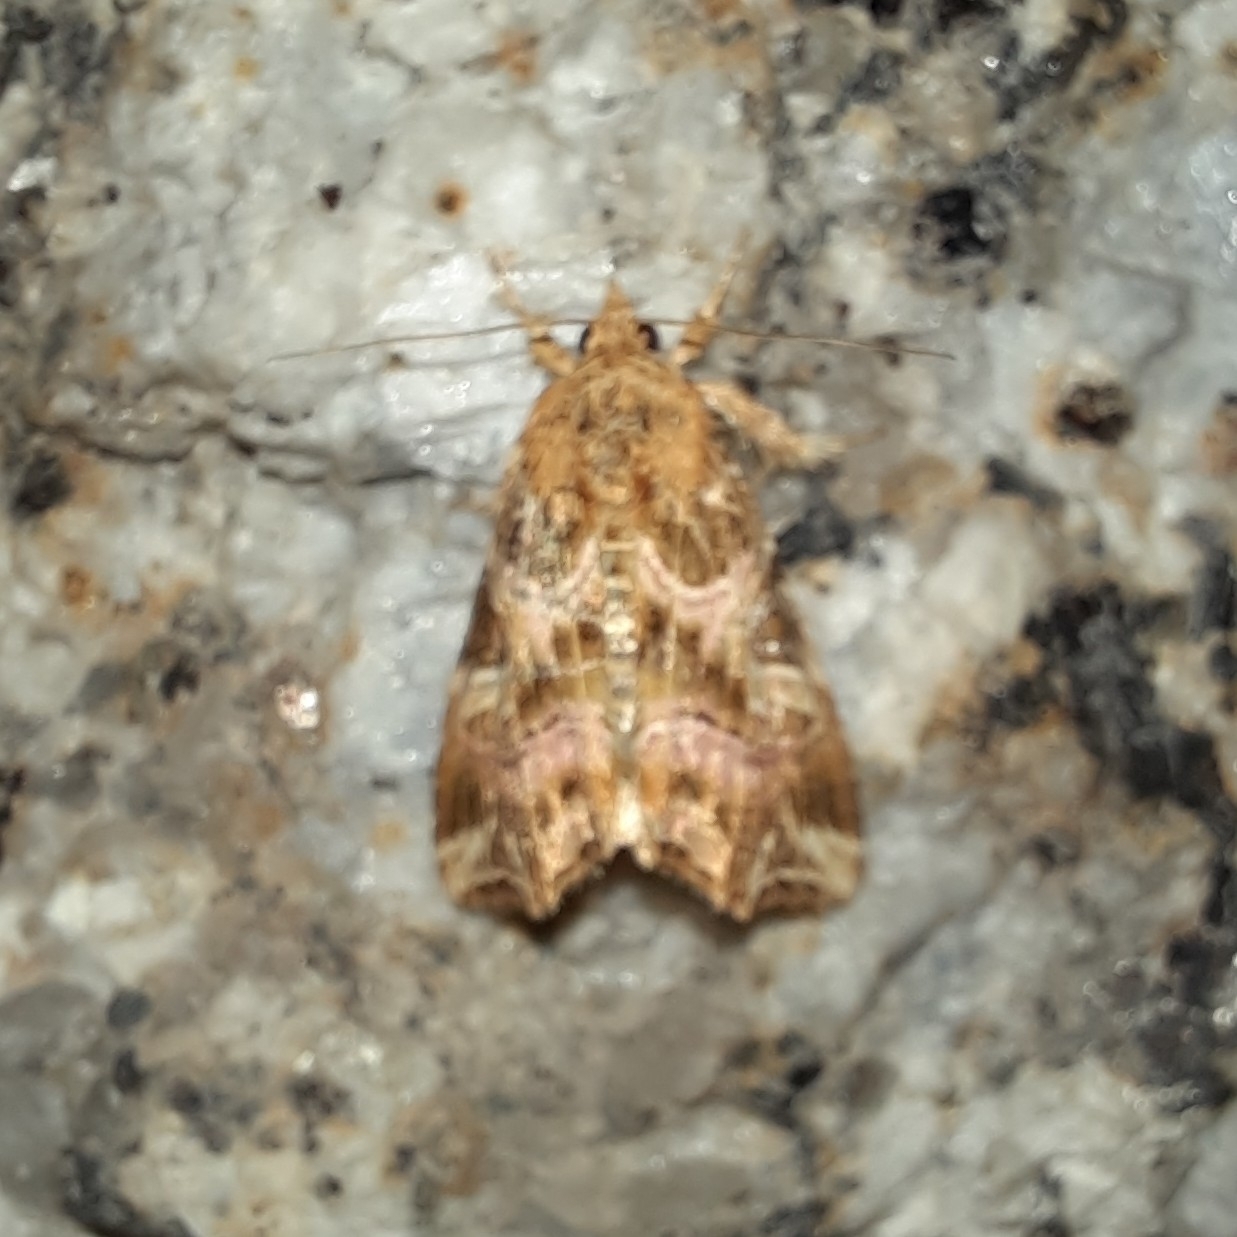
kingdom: Animalia
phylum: Arthropoda
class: Insecta
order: Lepidoptera
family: Noctuidae
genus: Callopistria
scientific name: Callopistria juventina
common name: Latin
